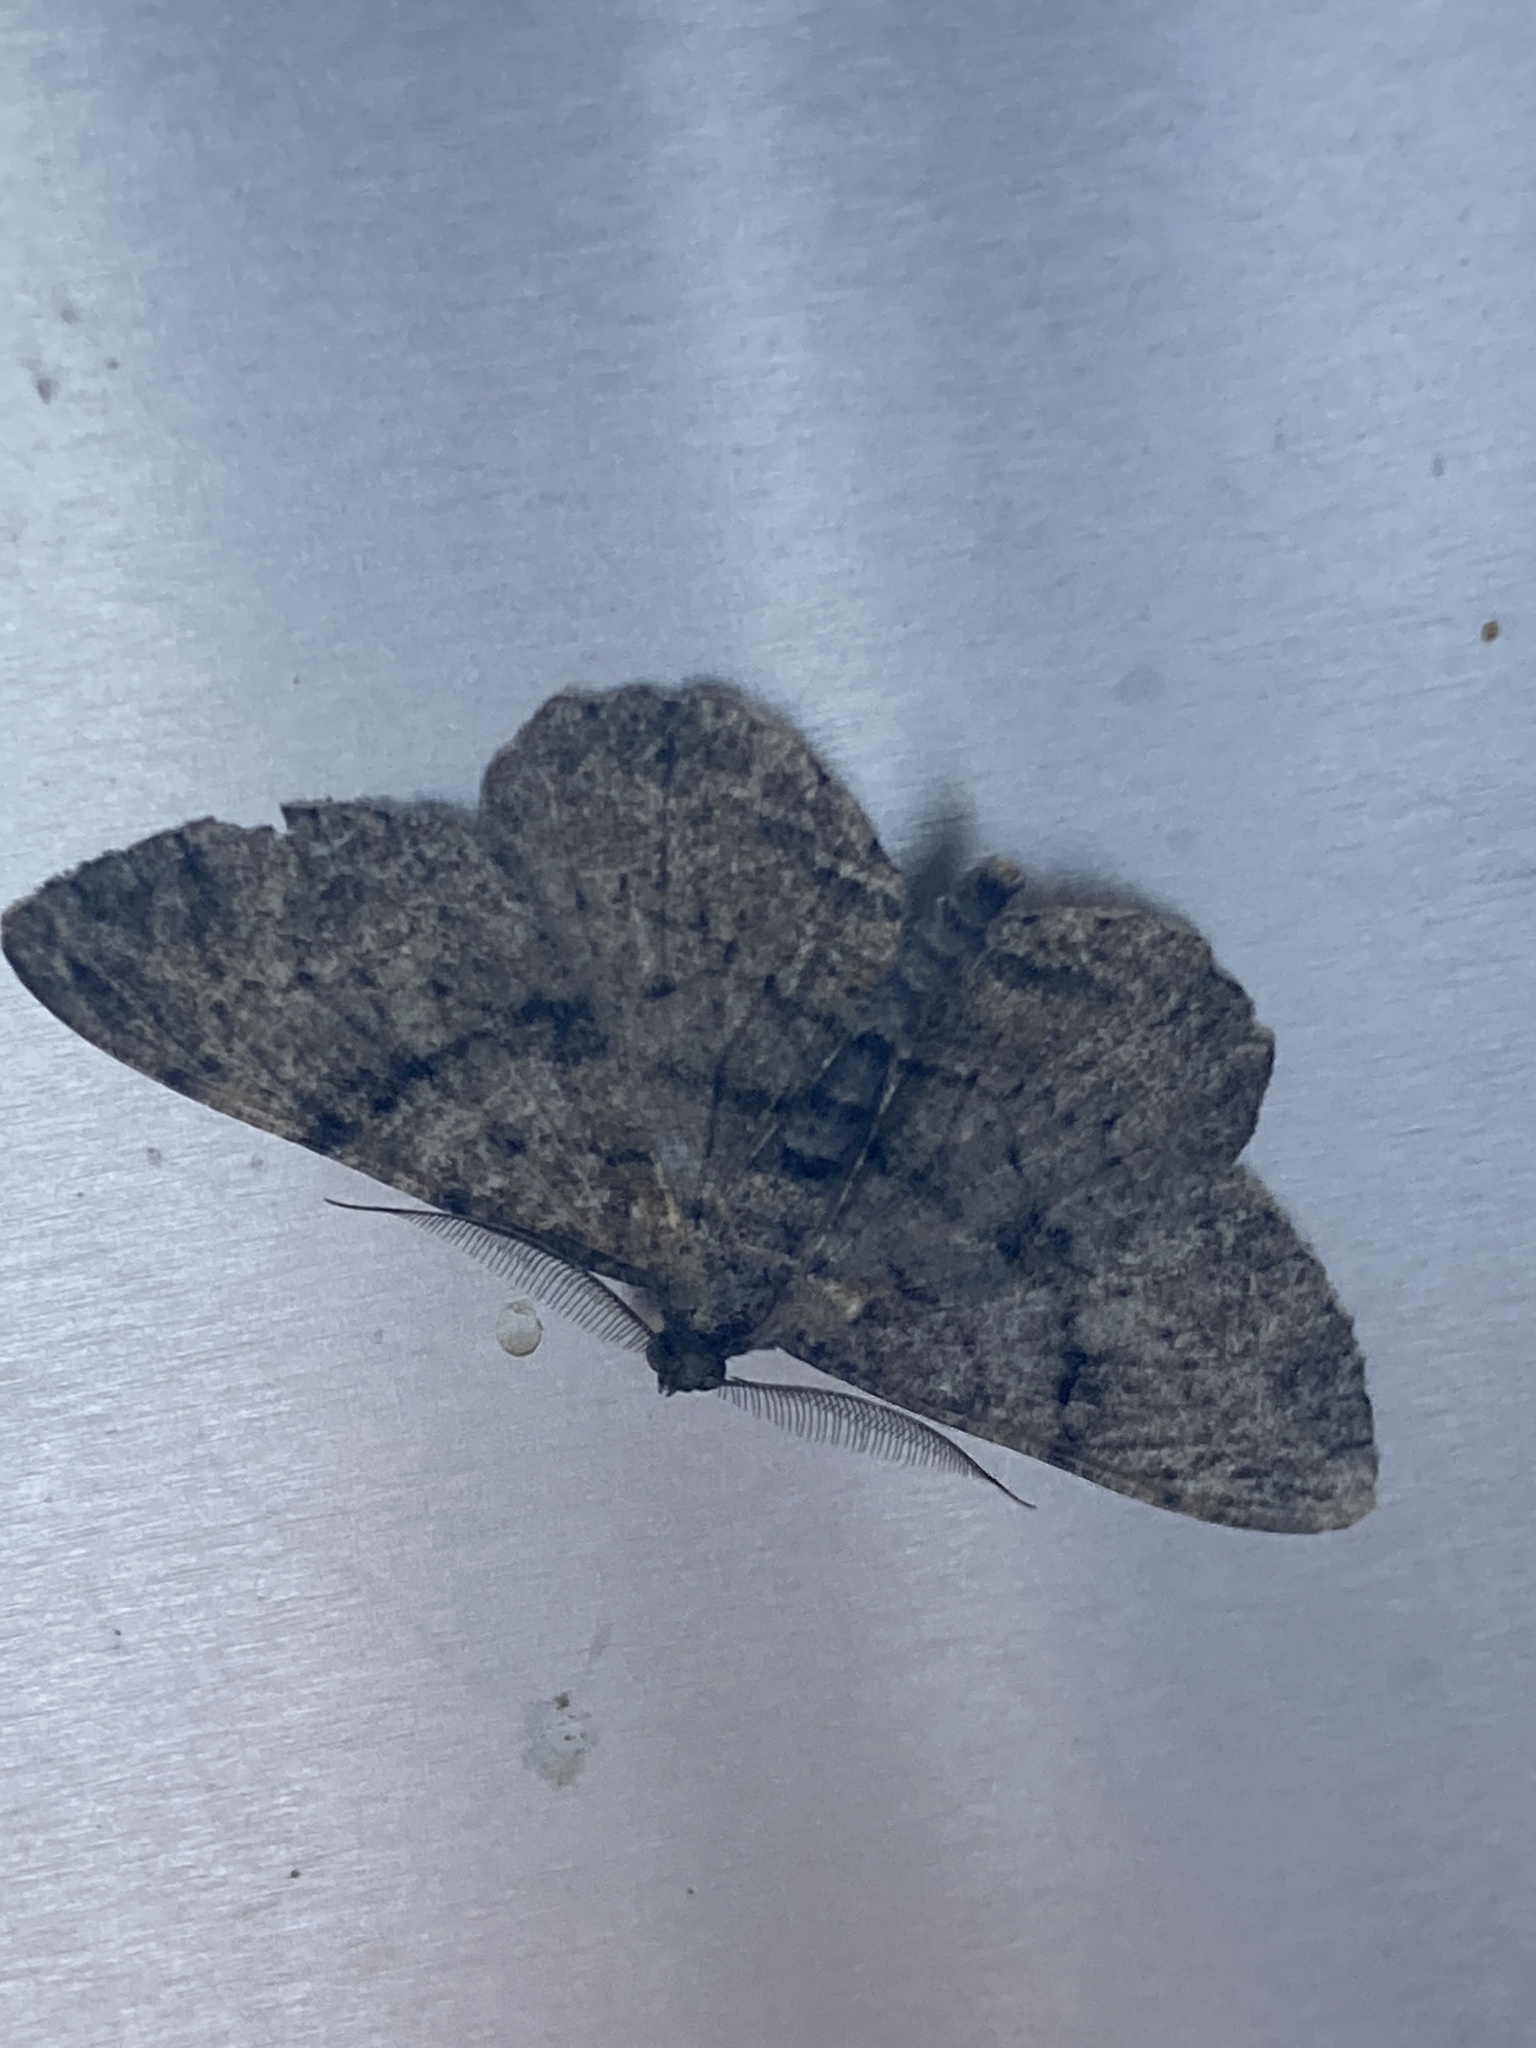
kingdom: Animalia
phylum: Arthropoda
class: Insecta
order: Lepidoptera
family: Geometridae
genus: Peribatodes
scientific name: Peribatodes rhomboidaria
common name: Willow beauty
